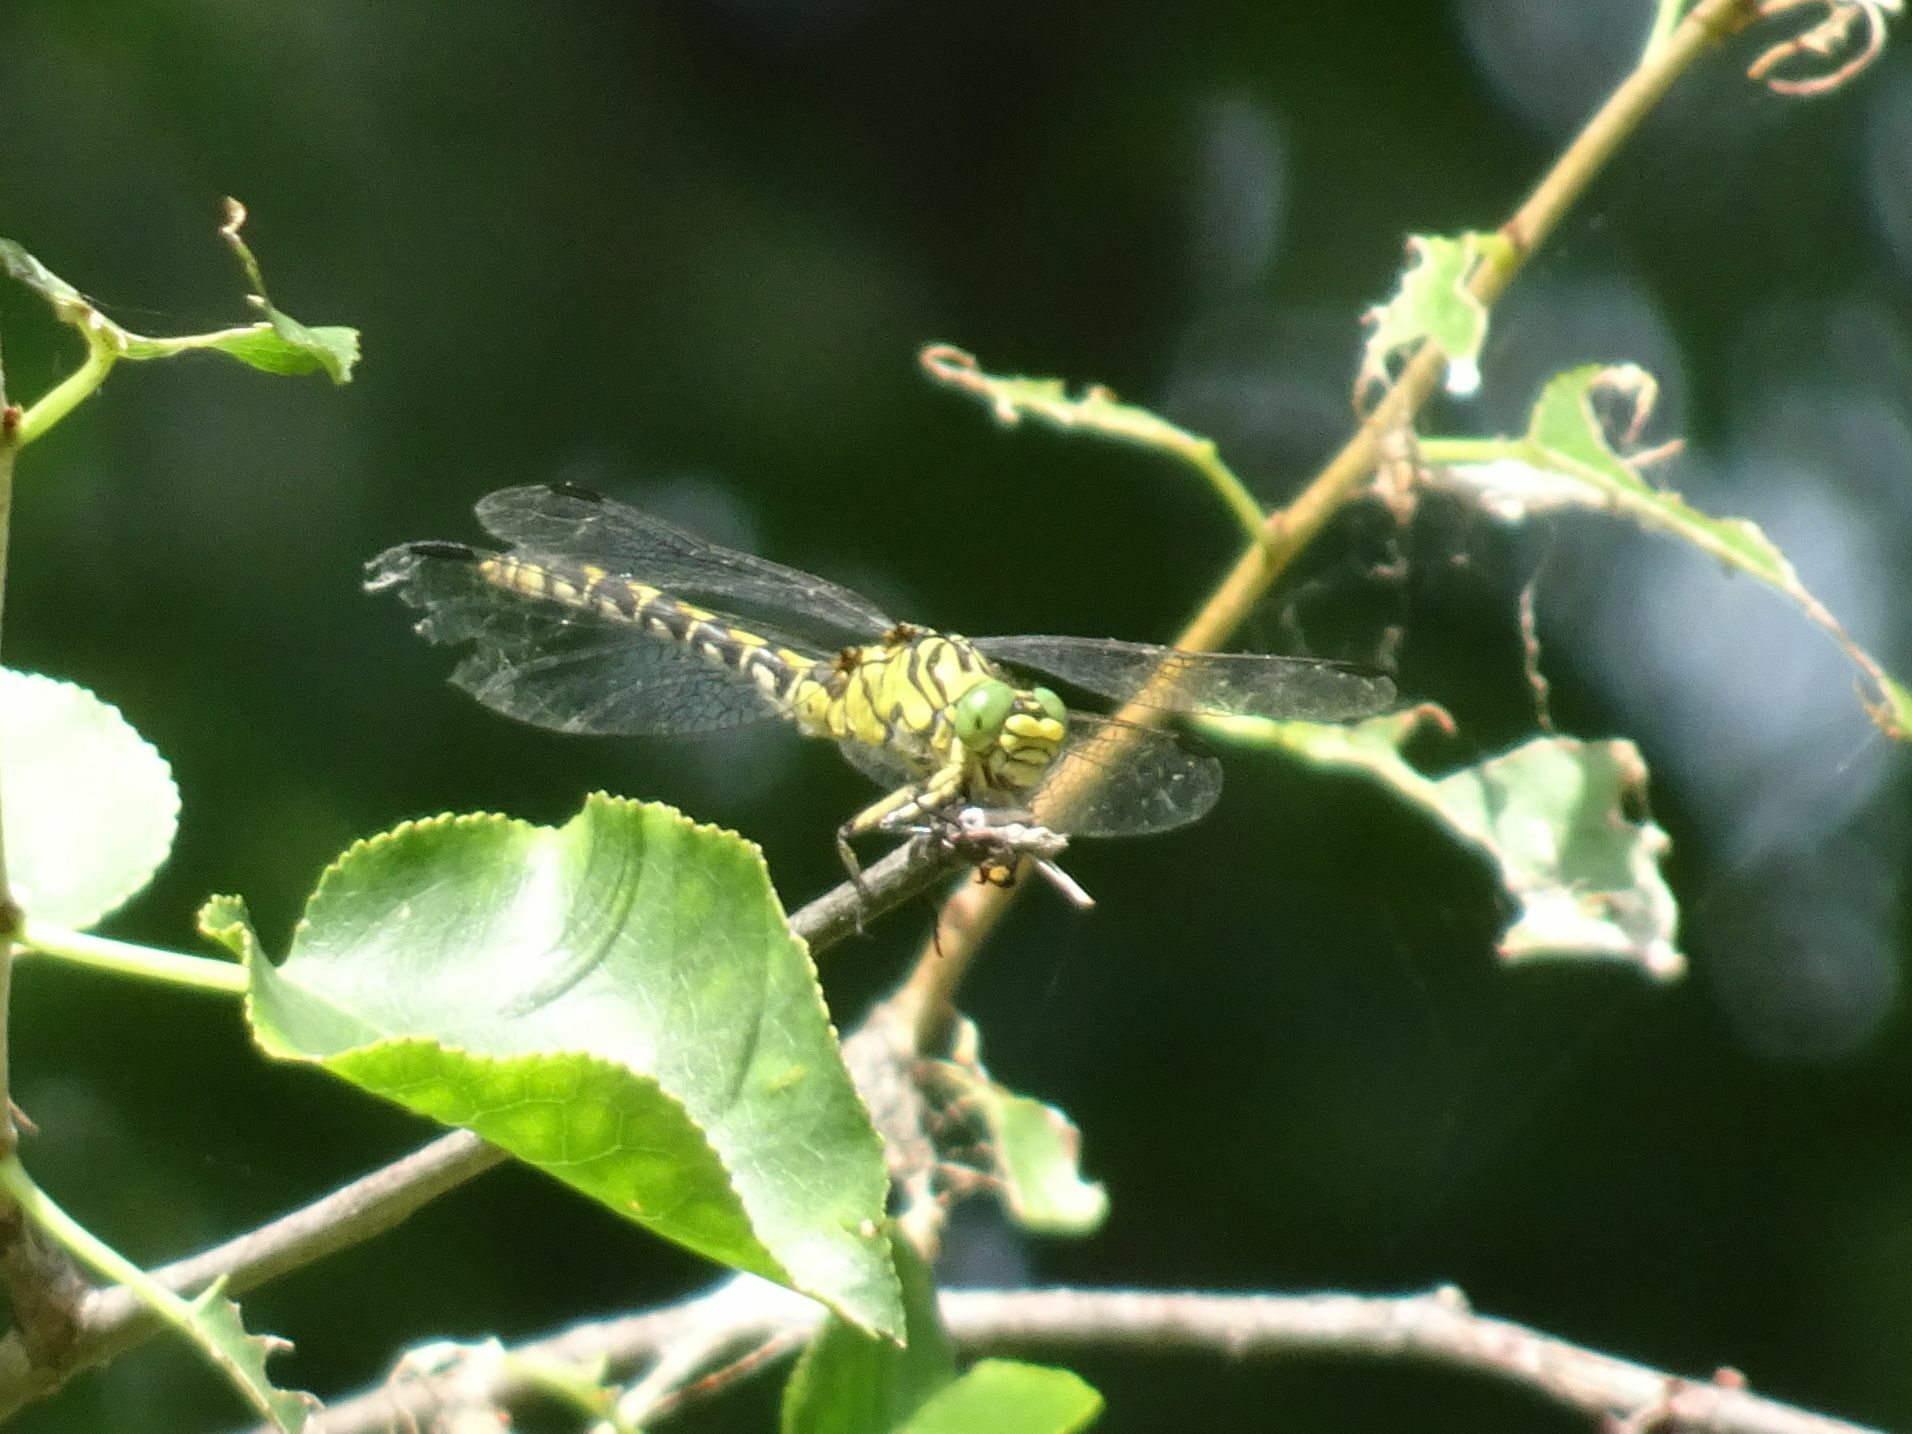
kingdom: Animalia
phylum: Arthropoda
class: Insecta
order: Odonata
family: Gomphidae
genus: Onychogomphus
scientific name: Onychogomphus forcipatus
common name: Small pincertail
